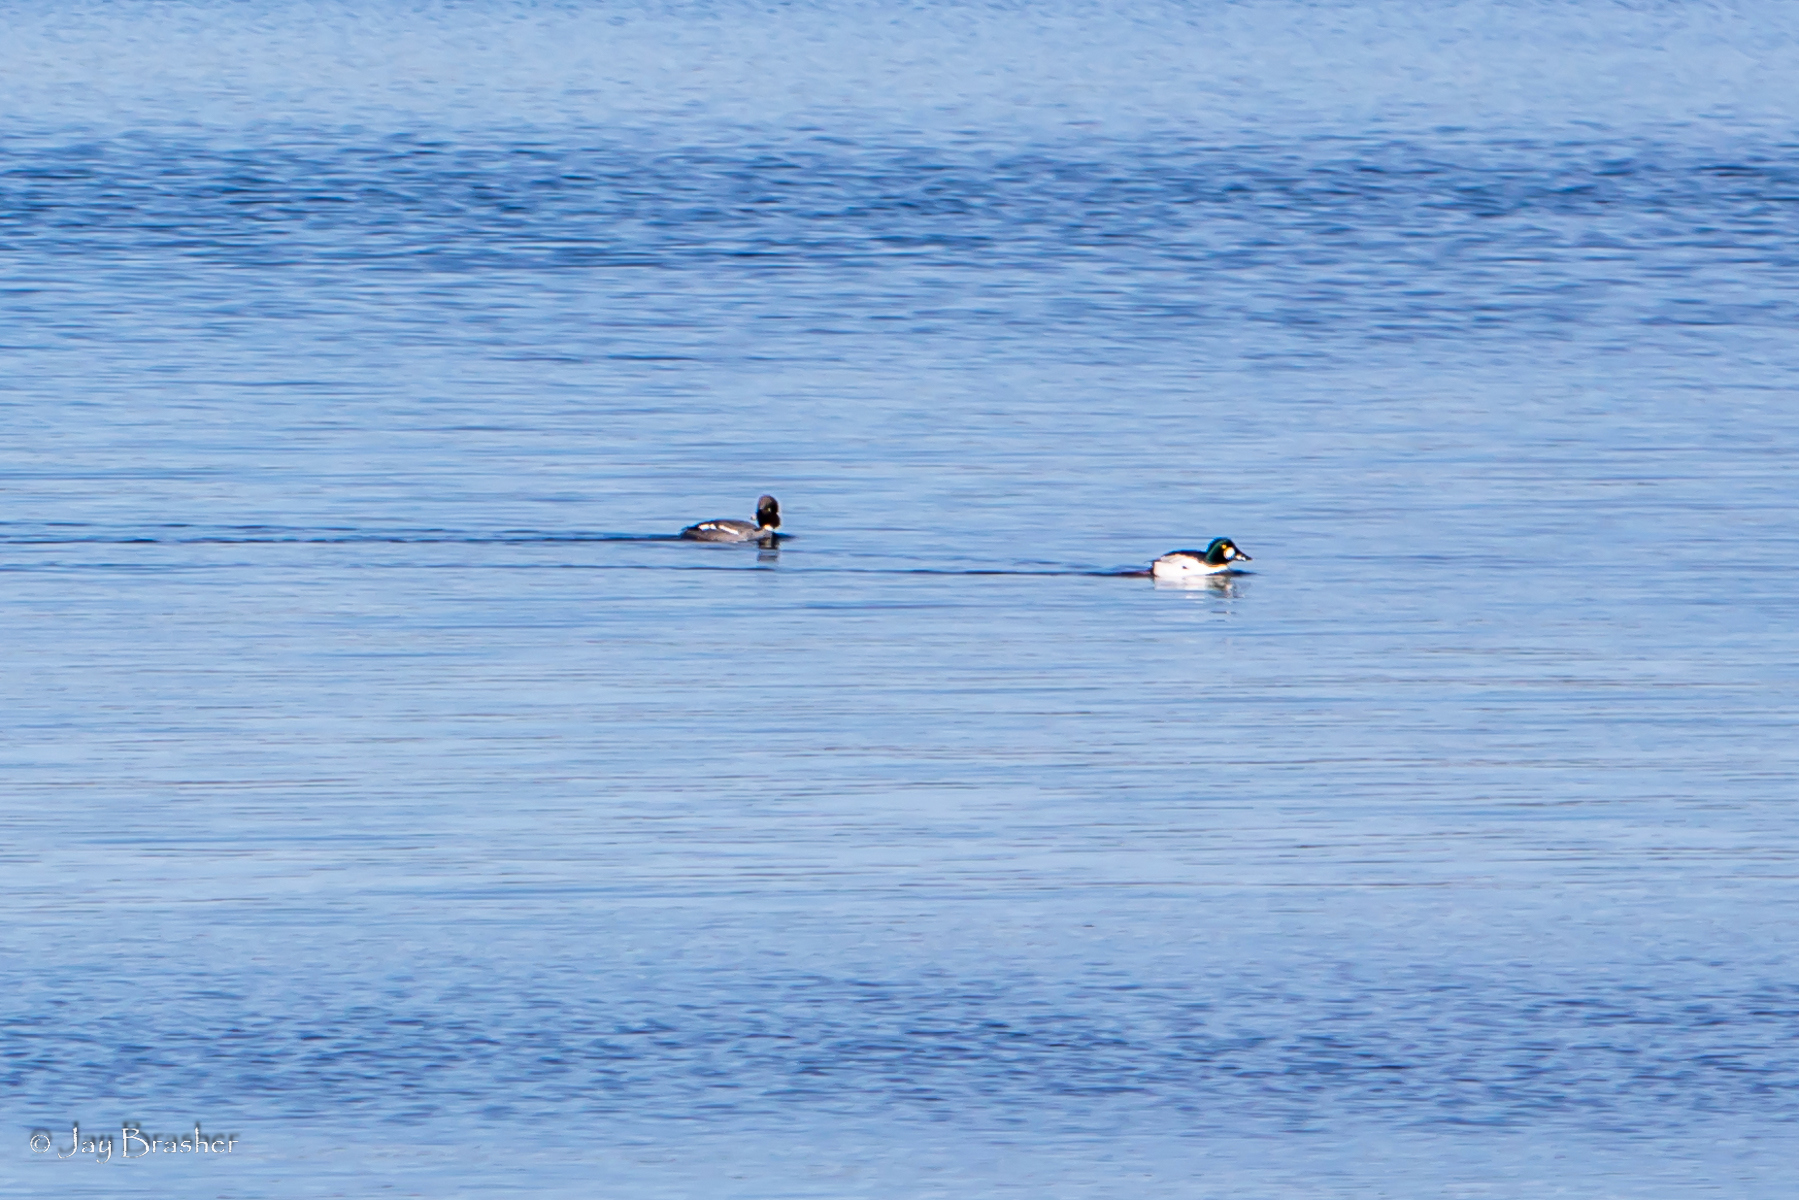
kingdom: Animalia
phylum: Chordata
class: Aves
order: Anseriformes
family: Anatidae
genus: Bucephala
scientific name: Bucephala clangula
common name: Common goldeneye
